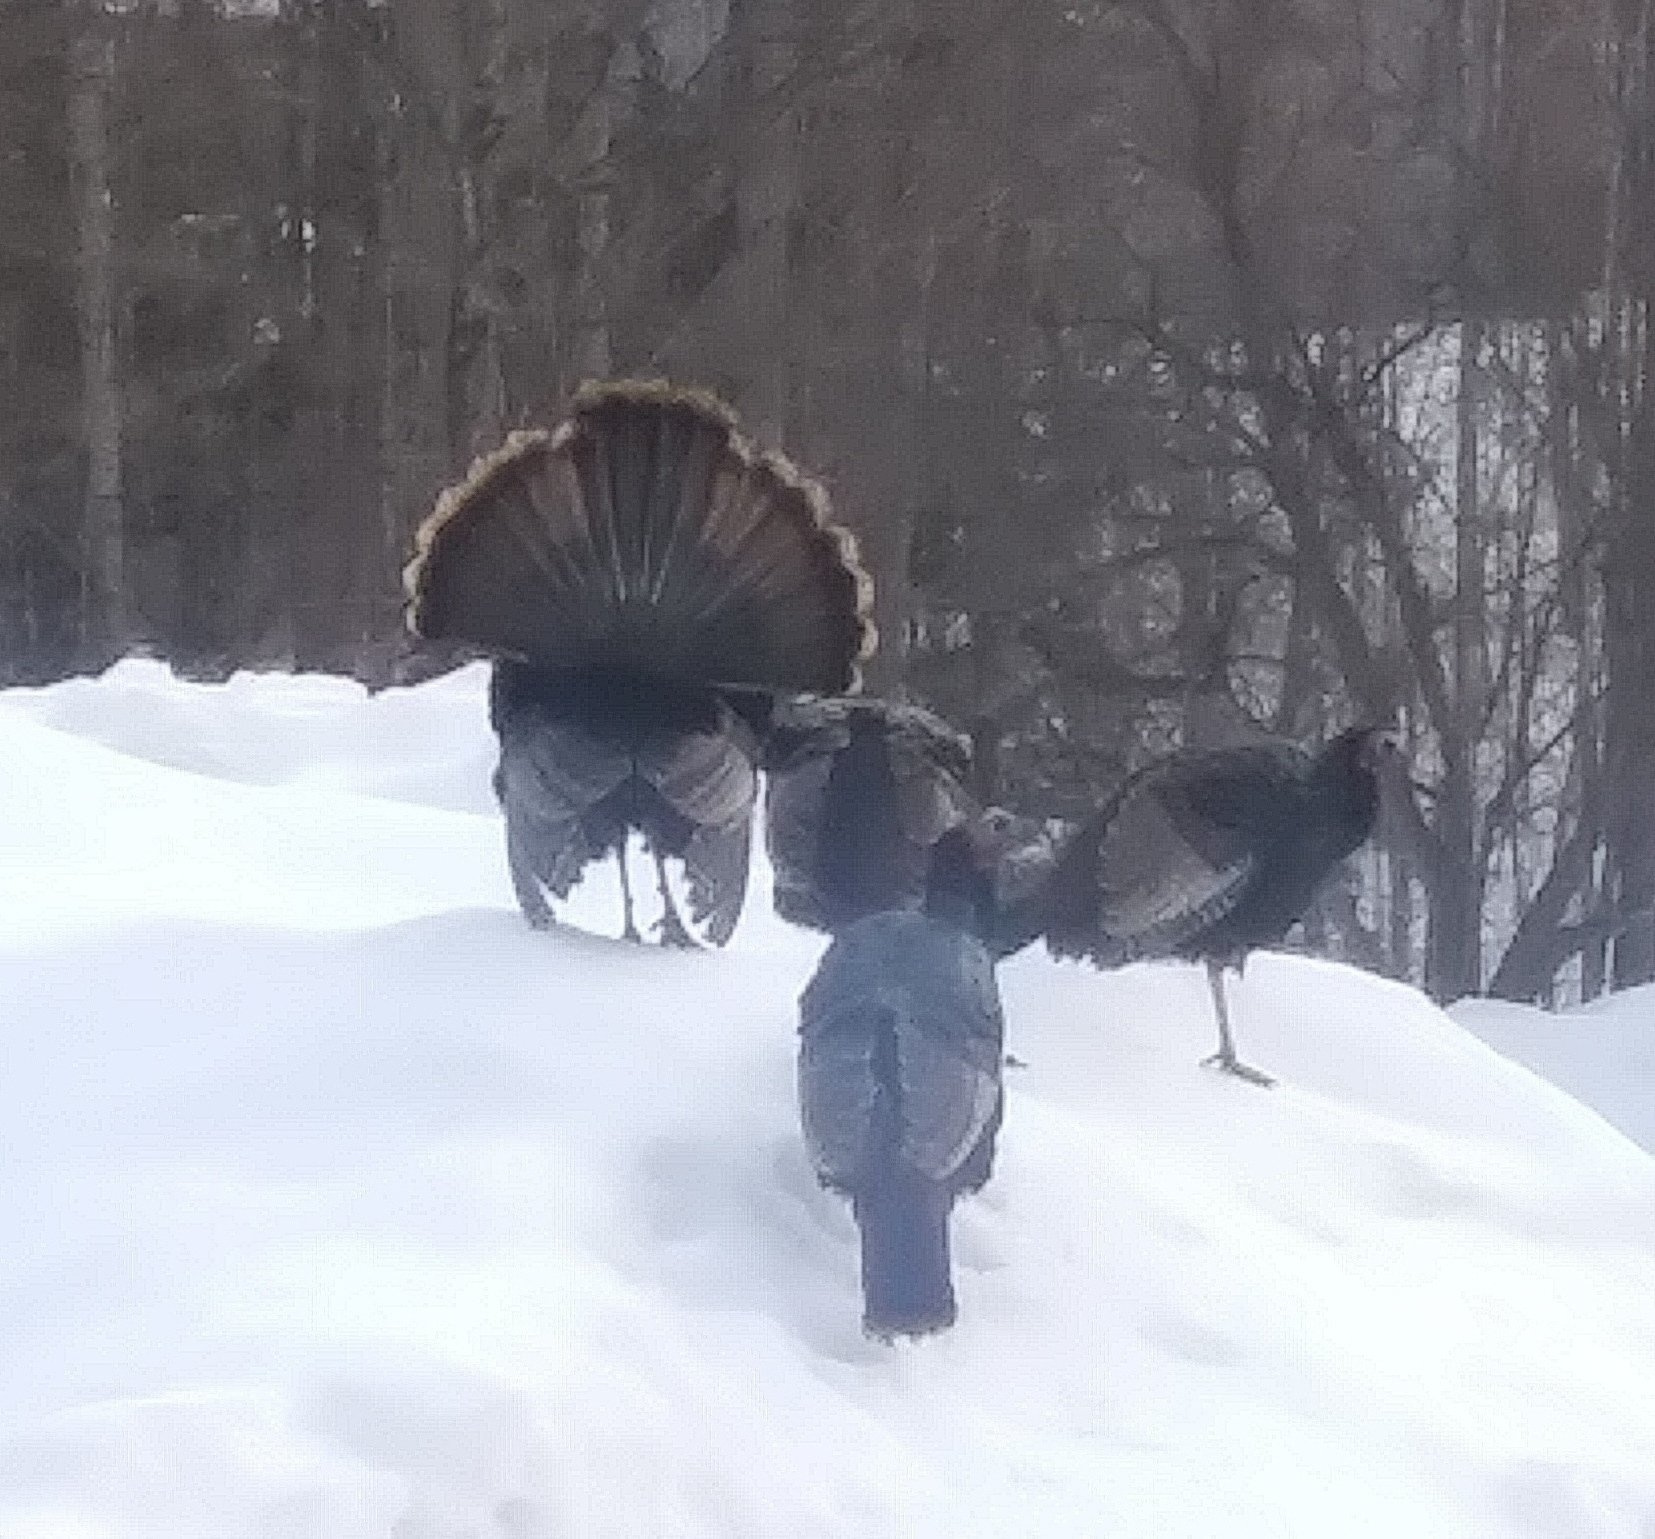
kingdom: Animalia
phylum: Chordata
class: Aves
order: Galliformes
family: Phasianidae
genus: Meleagris
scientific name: Meleagris gallopavo
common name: Wild turkey
